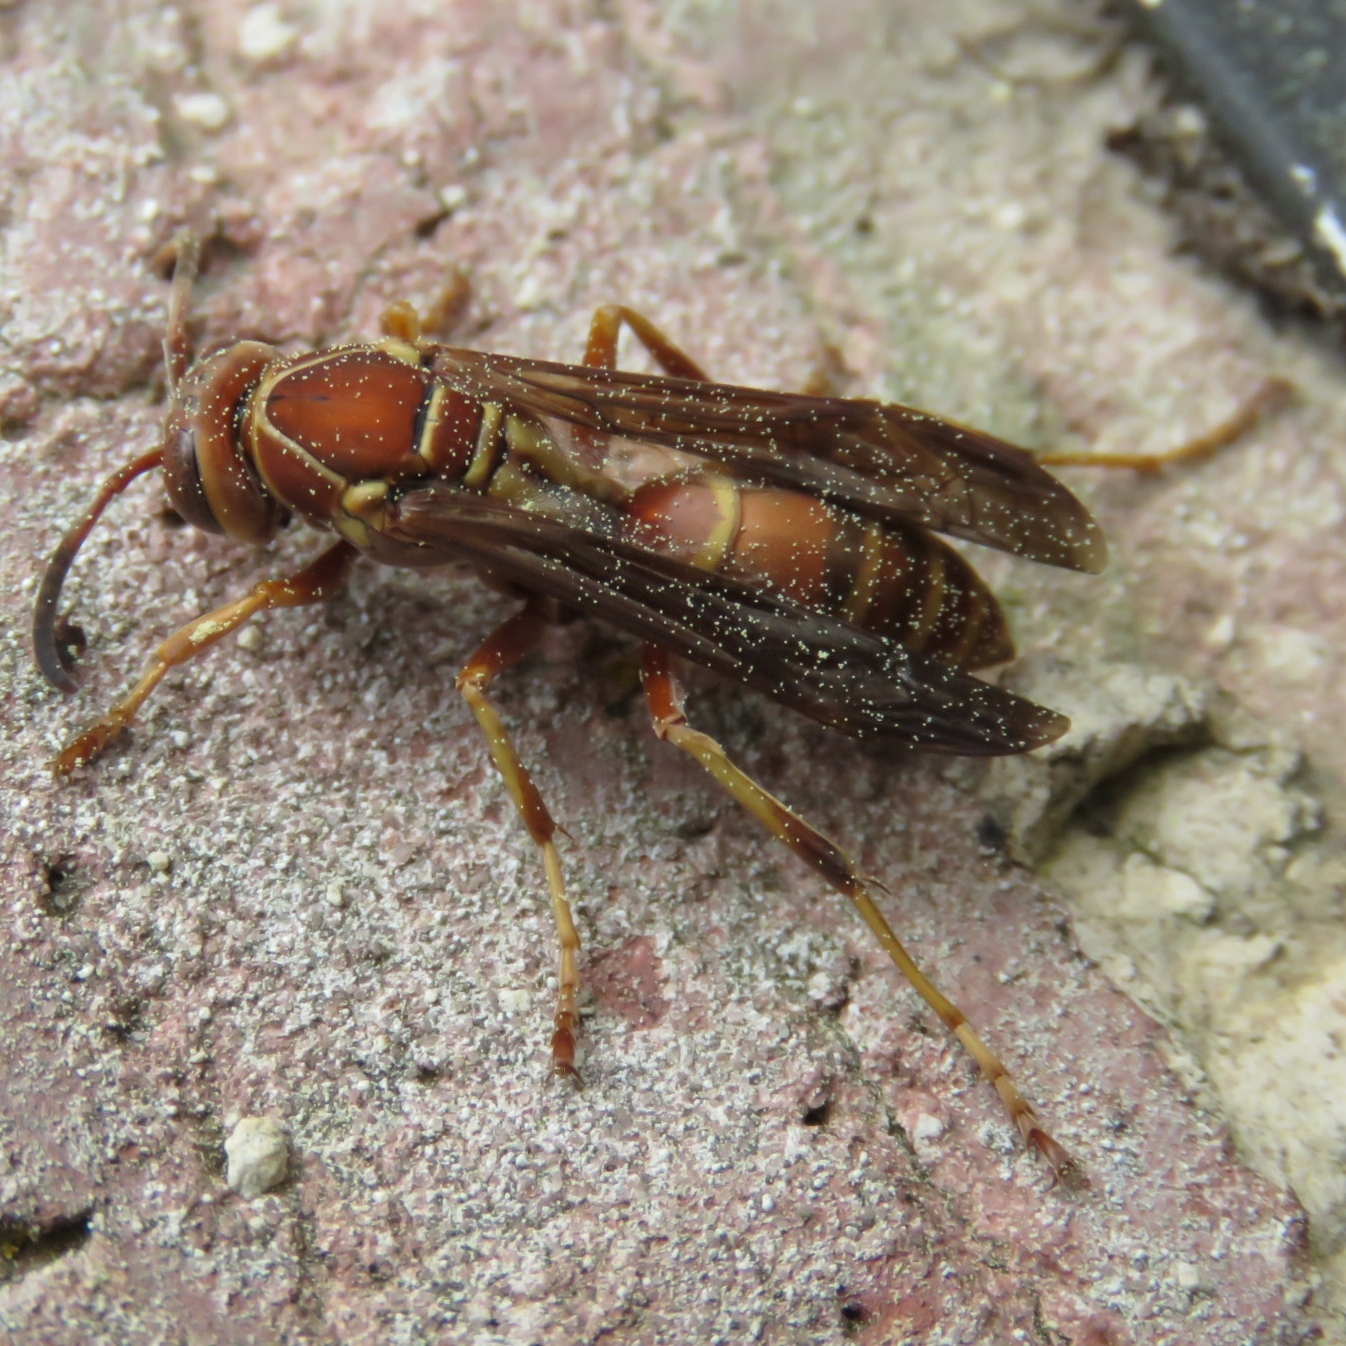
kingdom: Animalia
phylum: Arthropoda
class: Insecta
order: Hymenoptera
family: Eumenidae
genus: Polistes
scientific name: Polistes dorsalis
